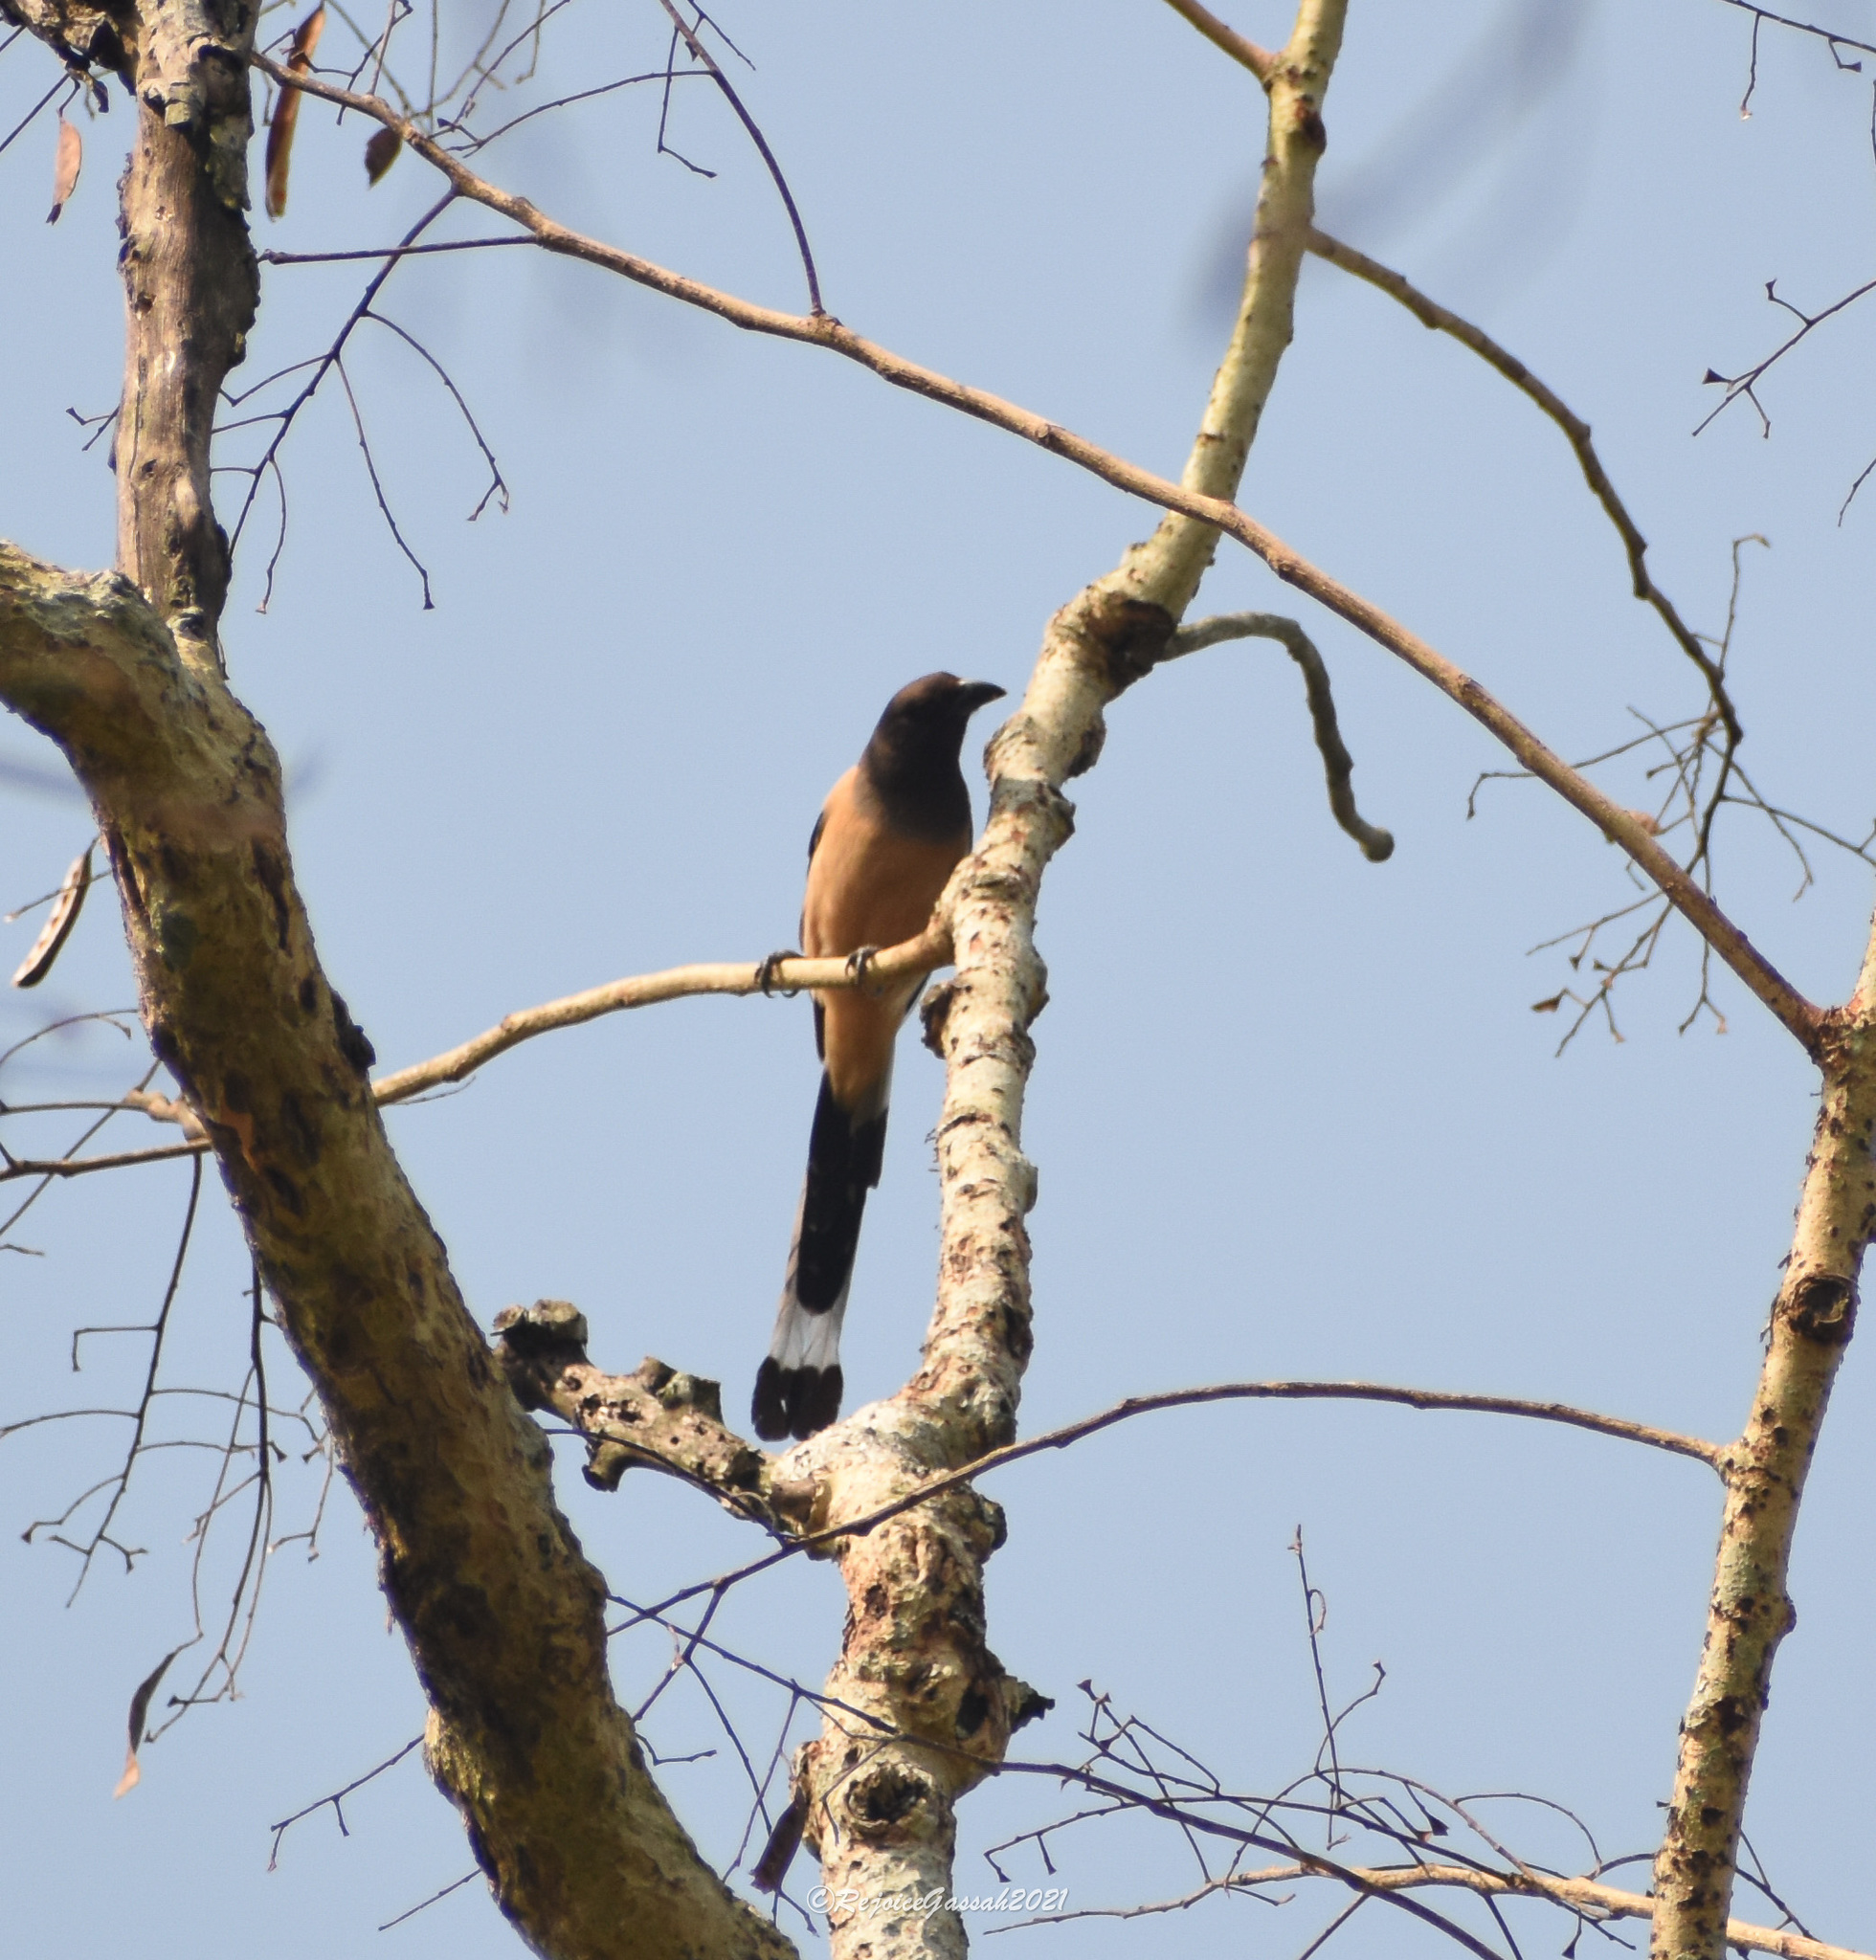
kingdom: Animalia
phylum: Chordata
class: Aves
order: Passeriformes
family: Corvidae
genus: Dendrocitta
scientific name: Dendrocitta vagabunda
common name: Rufous treepie
